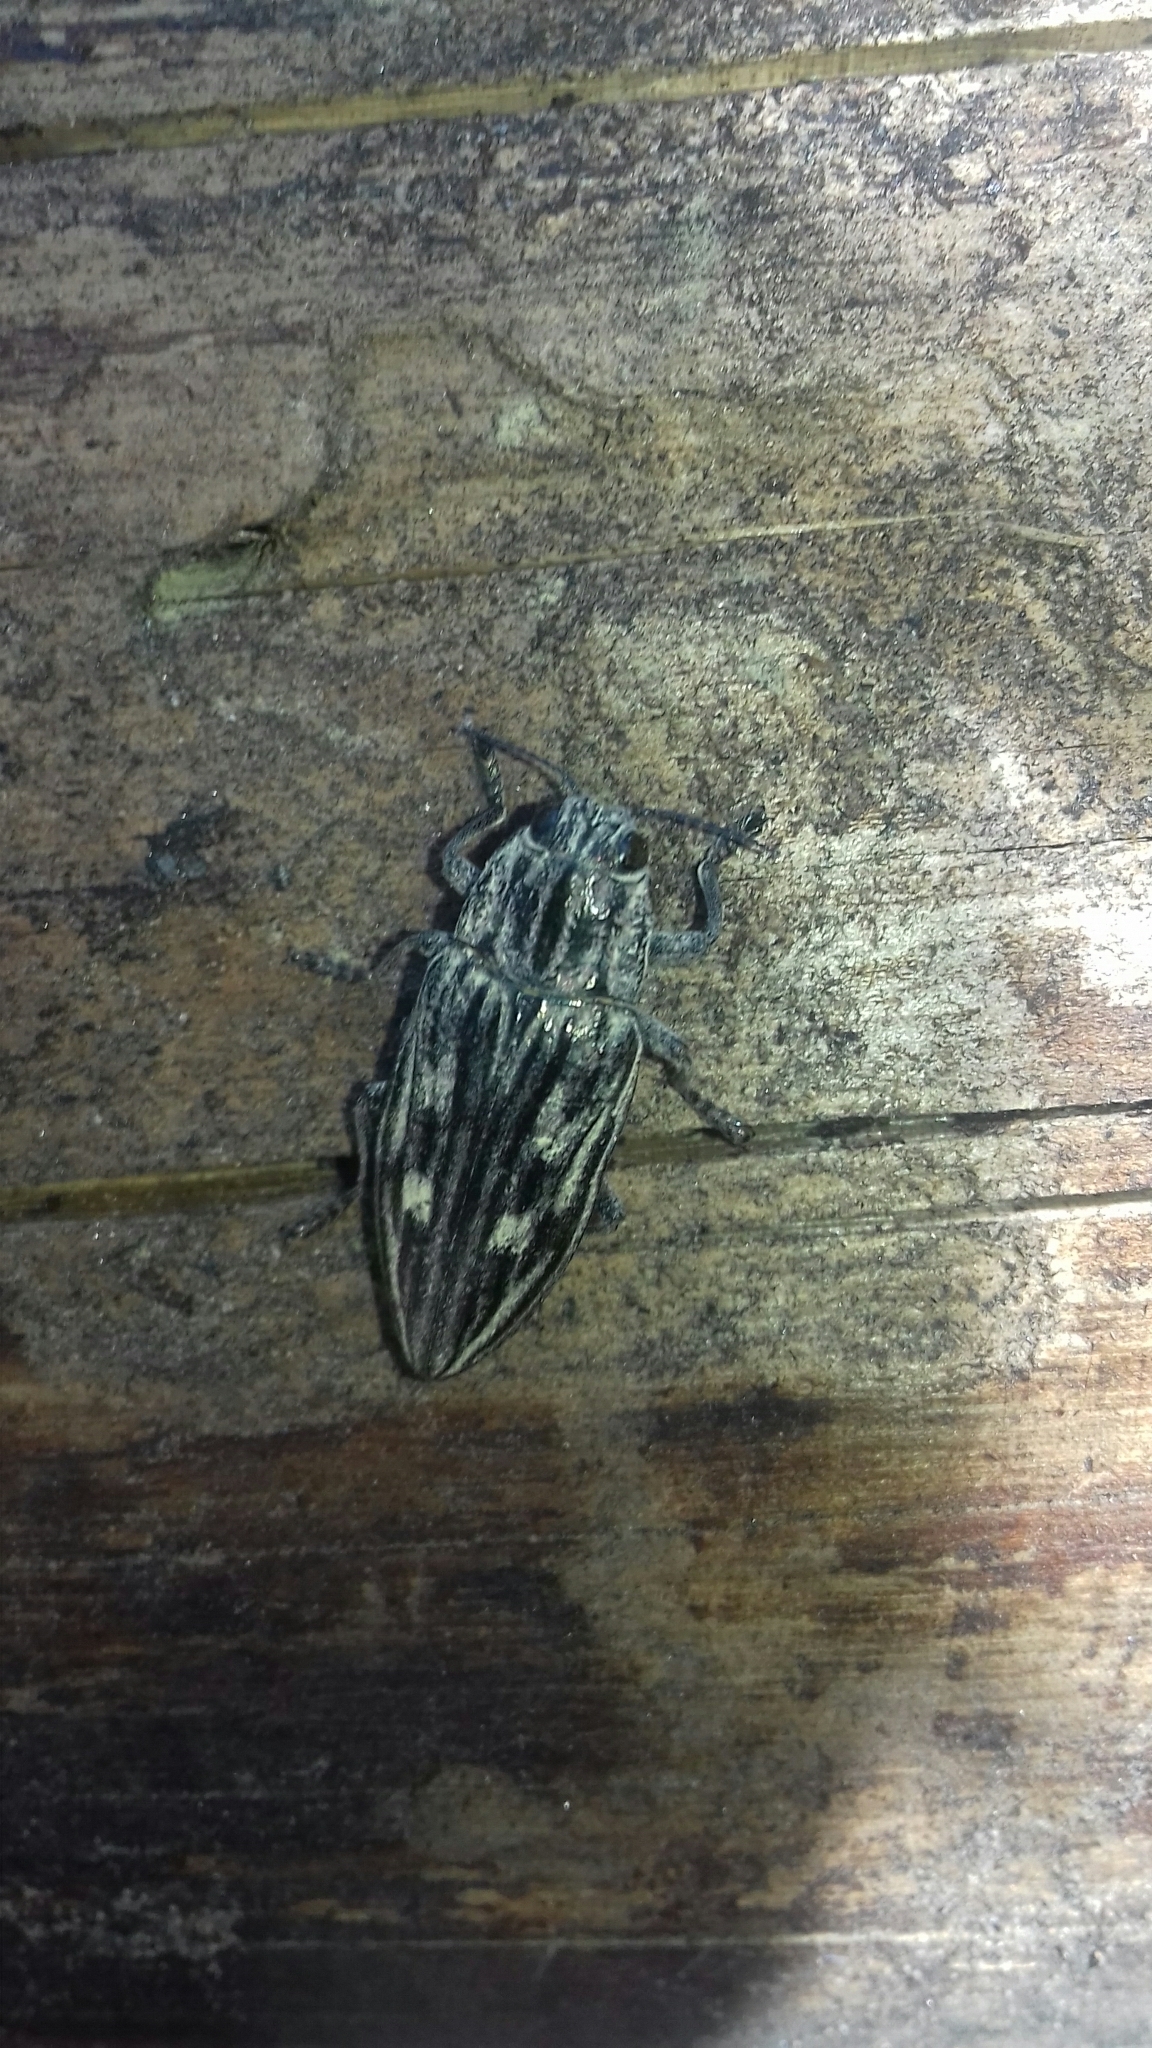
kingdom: Animalia
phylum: Arthropoda
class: Insecta
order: Coleoptera
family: Buprestidae
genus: Chalcophora
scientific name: Chalcophora mariana
